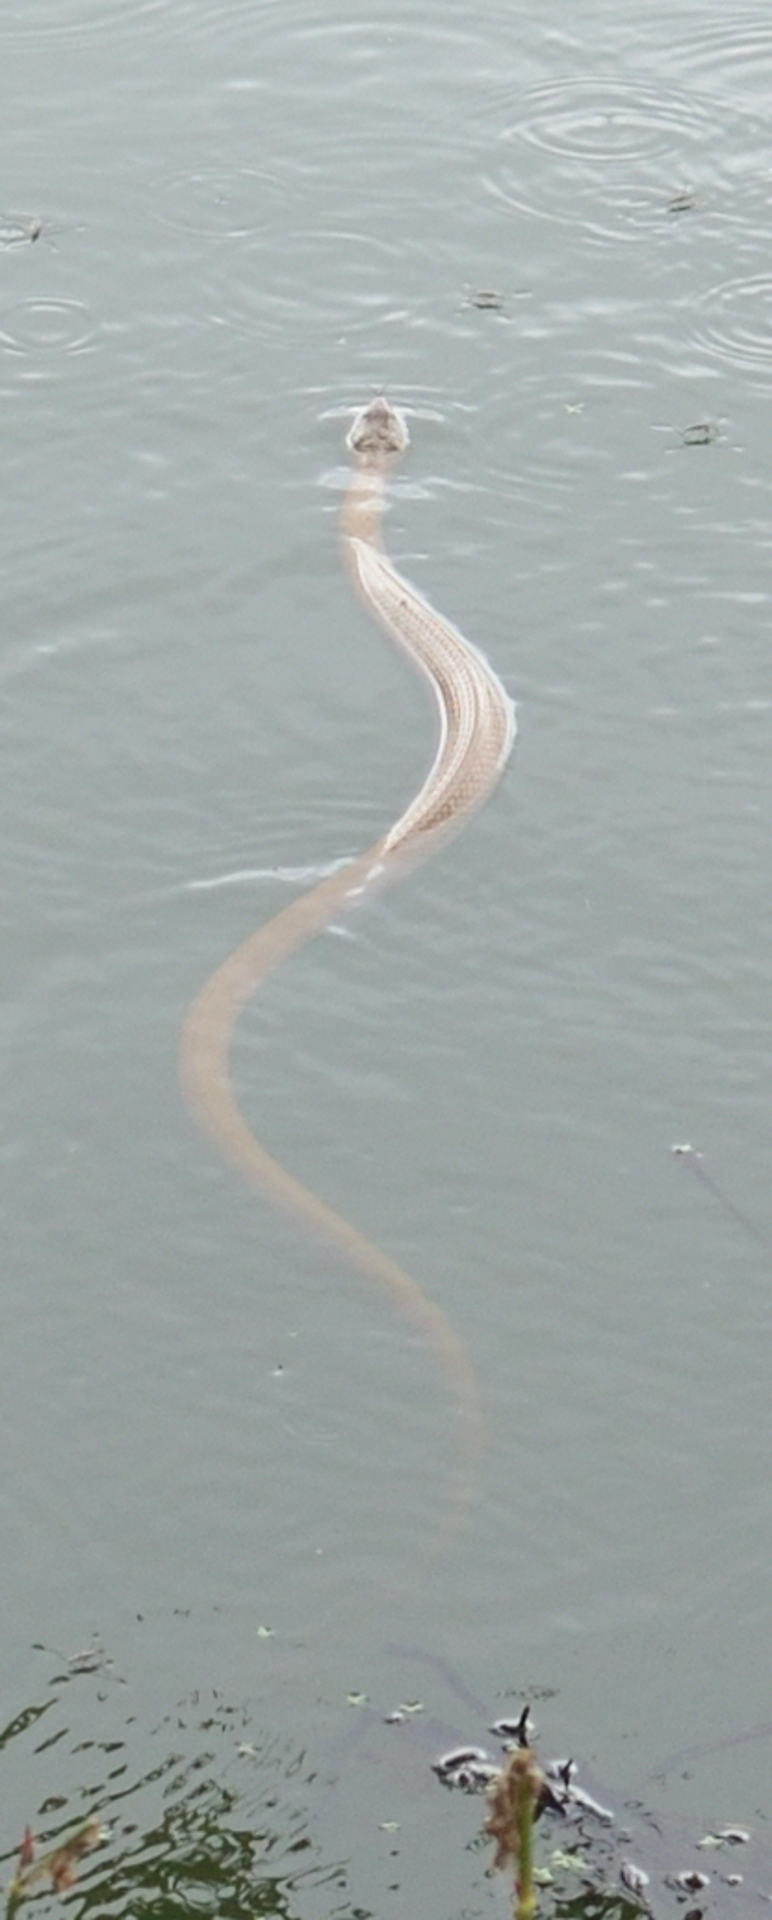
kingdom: Animalia
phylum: Chordata
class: Squamata
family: Colubridae
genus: Fowlea
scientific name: Fowlea piscator
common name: Asiatic water snake
